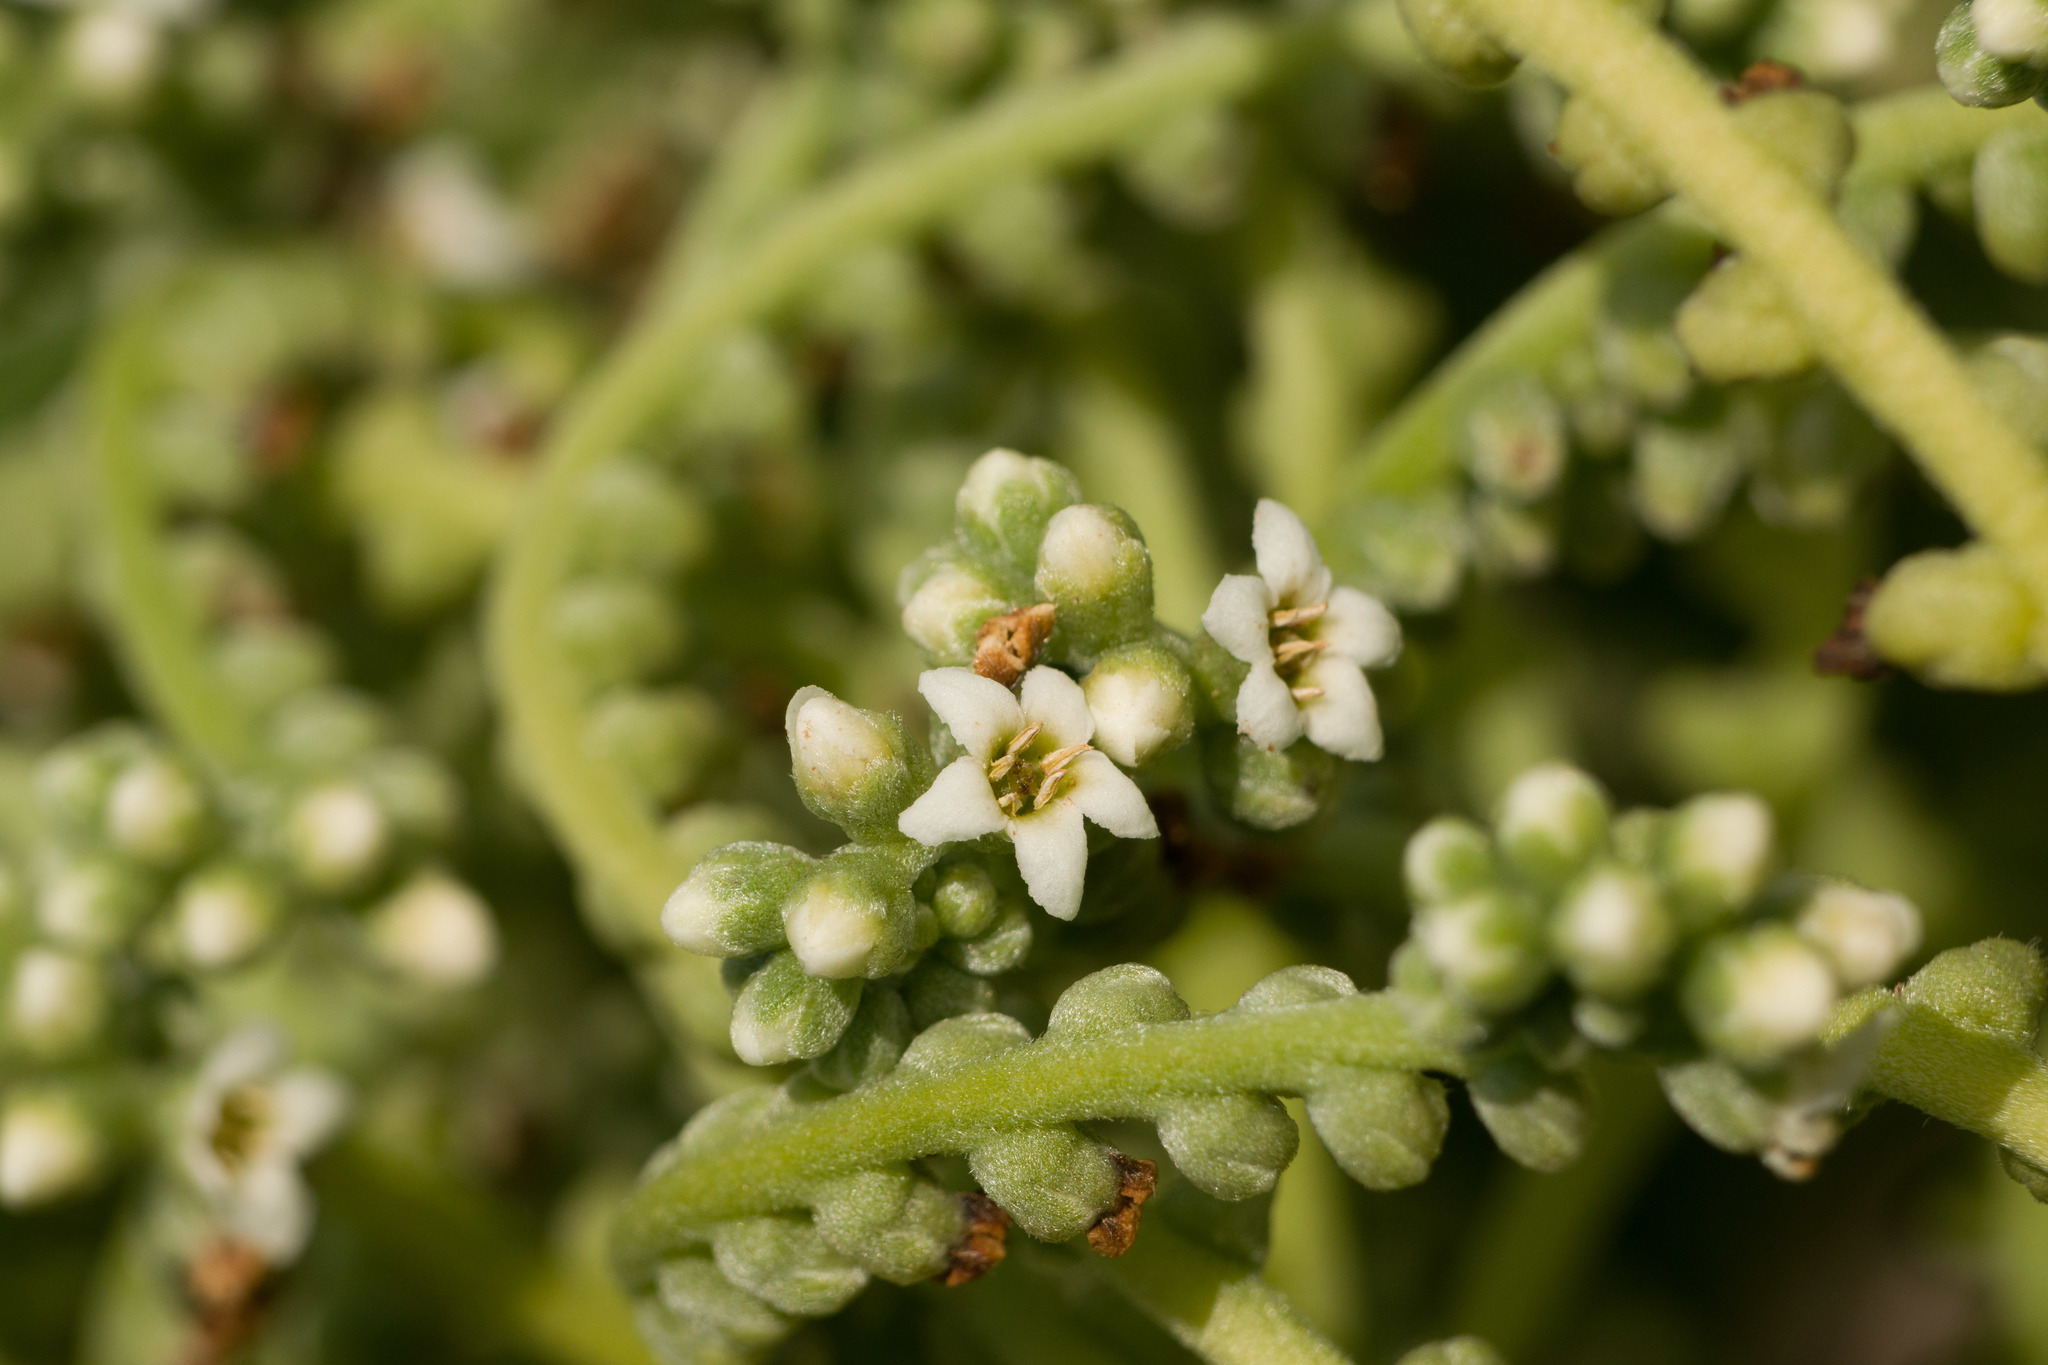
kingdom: Plantae
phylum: Tracheophyta
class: Magnoliopsida
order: Boraginales
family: Heliotropiaceae
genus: Heliotropium
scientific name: Heliotropium velutinum
